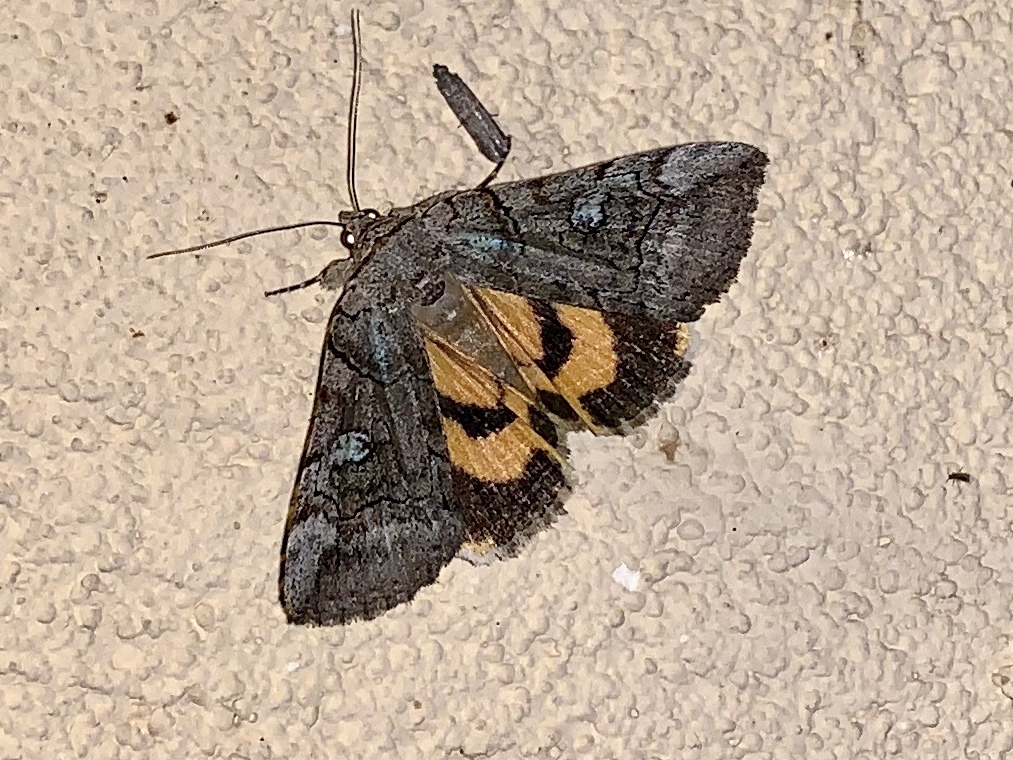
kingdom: Animalia
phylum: Arthropoda
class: Insecta
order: Lepidoptera
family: Erebidae
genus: Catocala
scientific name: Catocala similis
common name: Similar underwing
